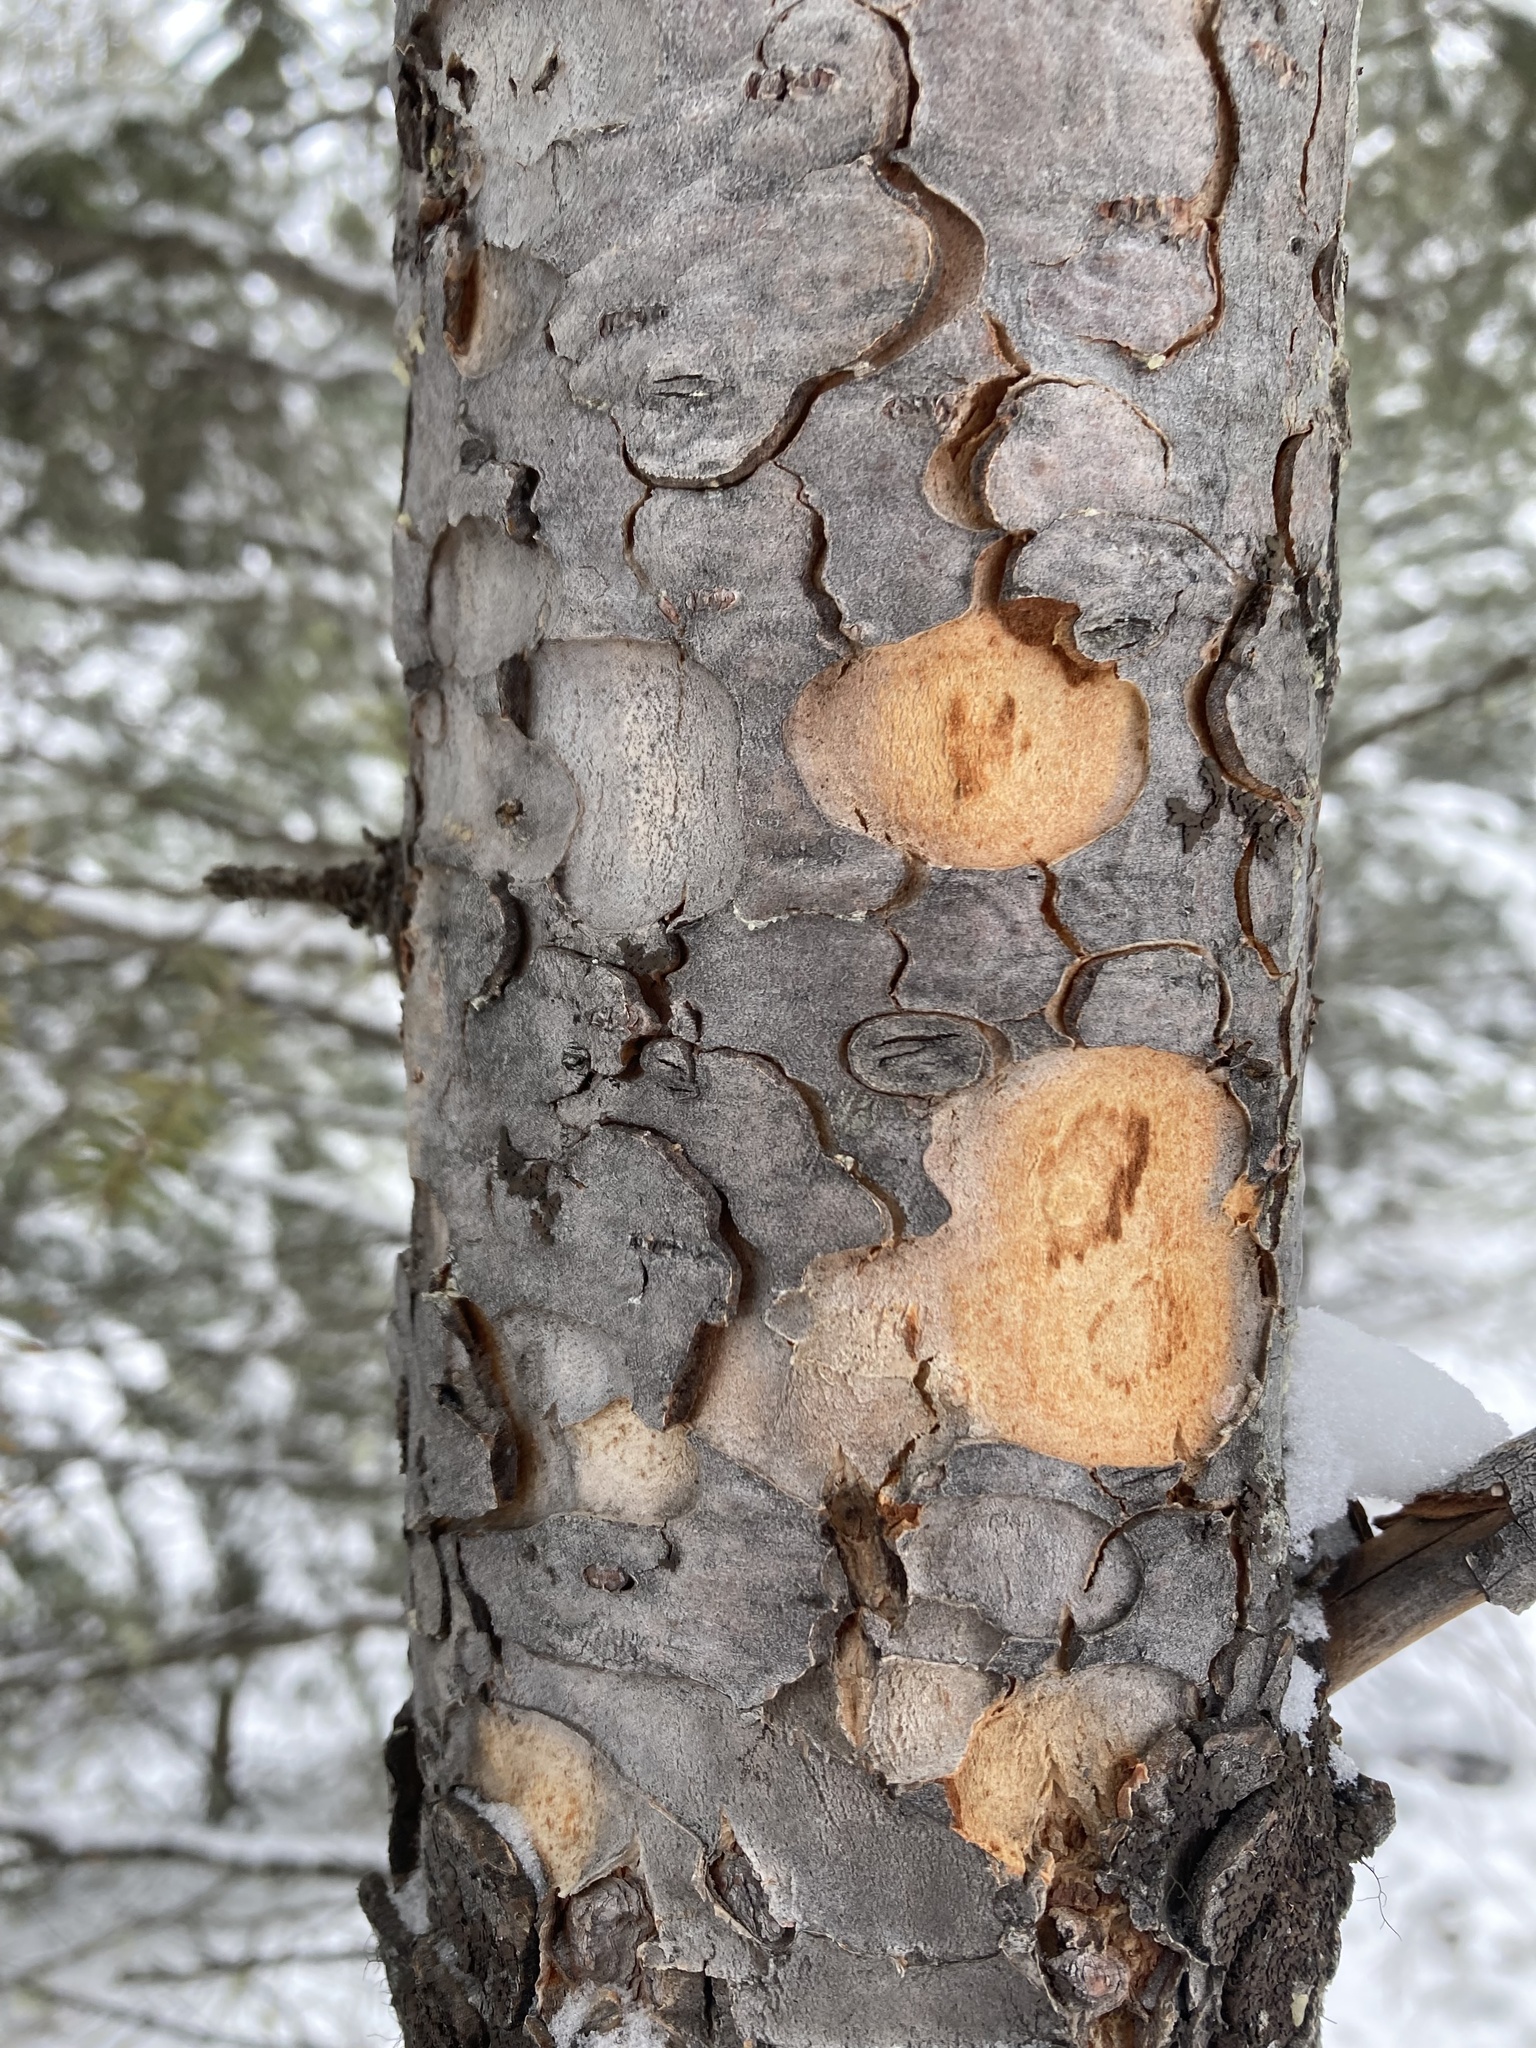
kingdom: Plantae
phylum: Tracheophyta
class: Pinopsida
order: Pinales
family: Pinaceae
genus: Pseudotsuga
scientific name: Pseudotsuga menziesii
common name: Douglas fir
